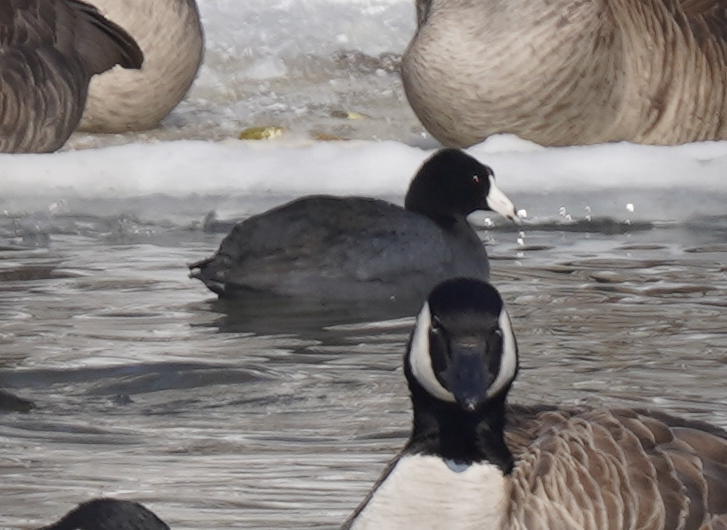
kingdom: Animalia
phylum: Chordata
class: Aves
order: Gruiformes
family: Rallidae
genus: Fulica
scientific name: Fulica americana
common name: American coot
